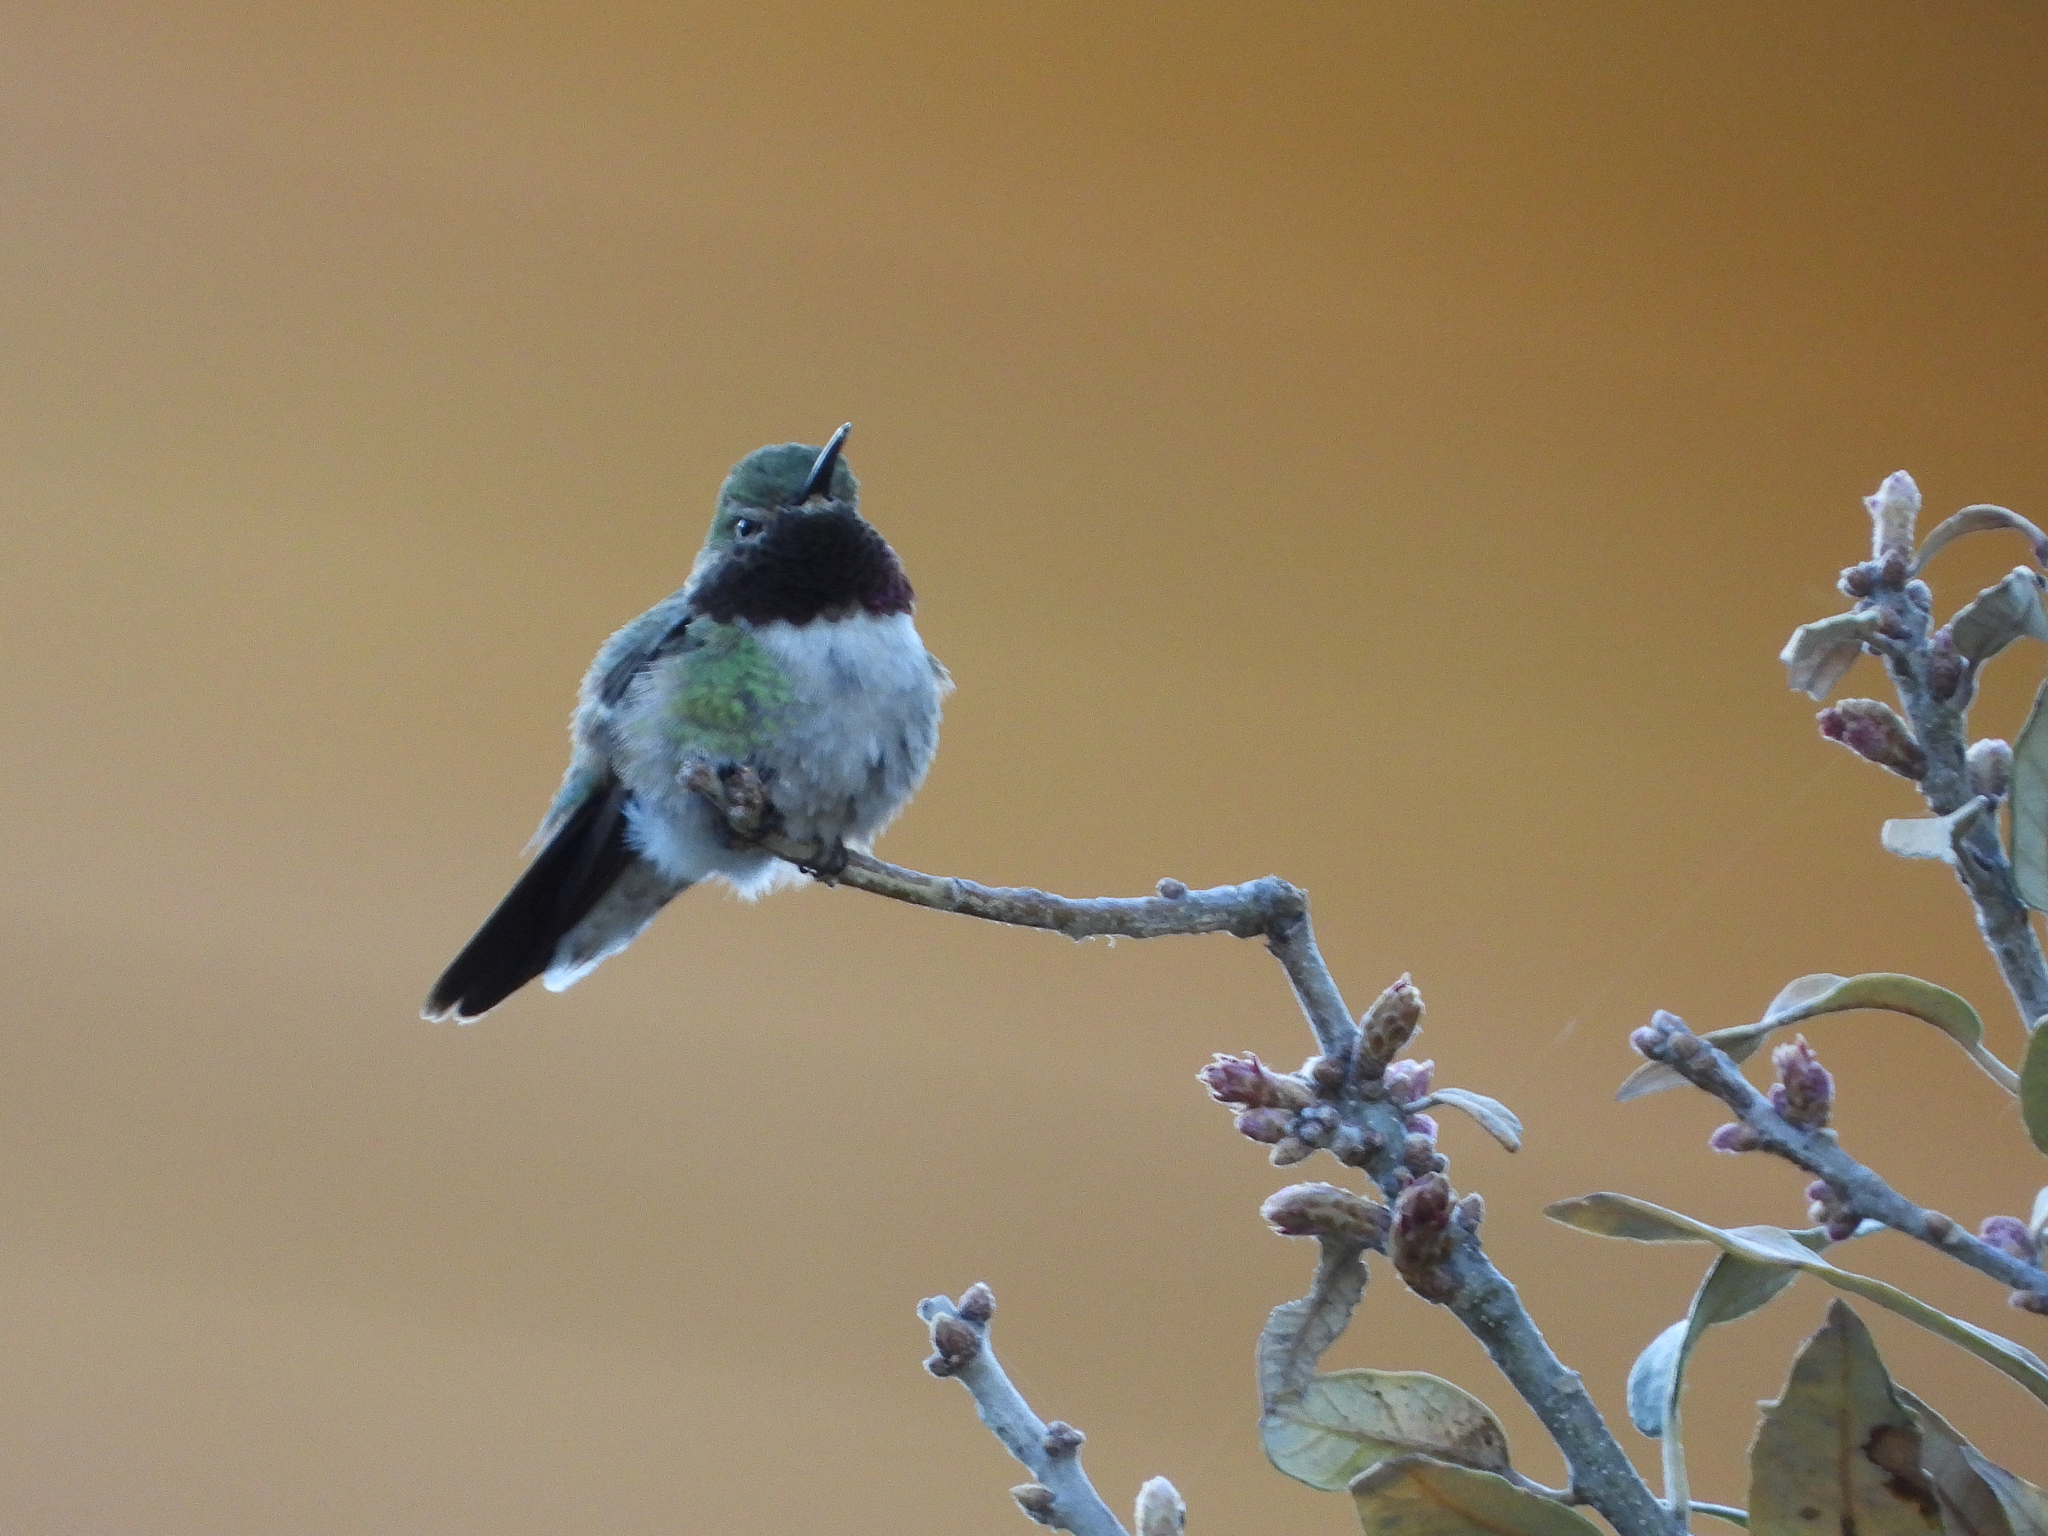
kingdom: Animalia
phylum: Chordata
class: Aves
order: Apodiformes
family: Trochilidae
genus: Selasphorus
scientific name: Selasphorus platycercus
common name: Broad-tailed hummingbird
